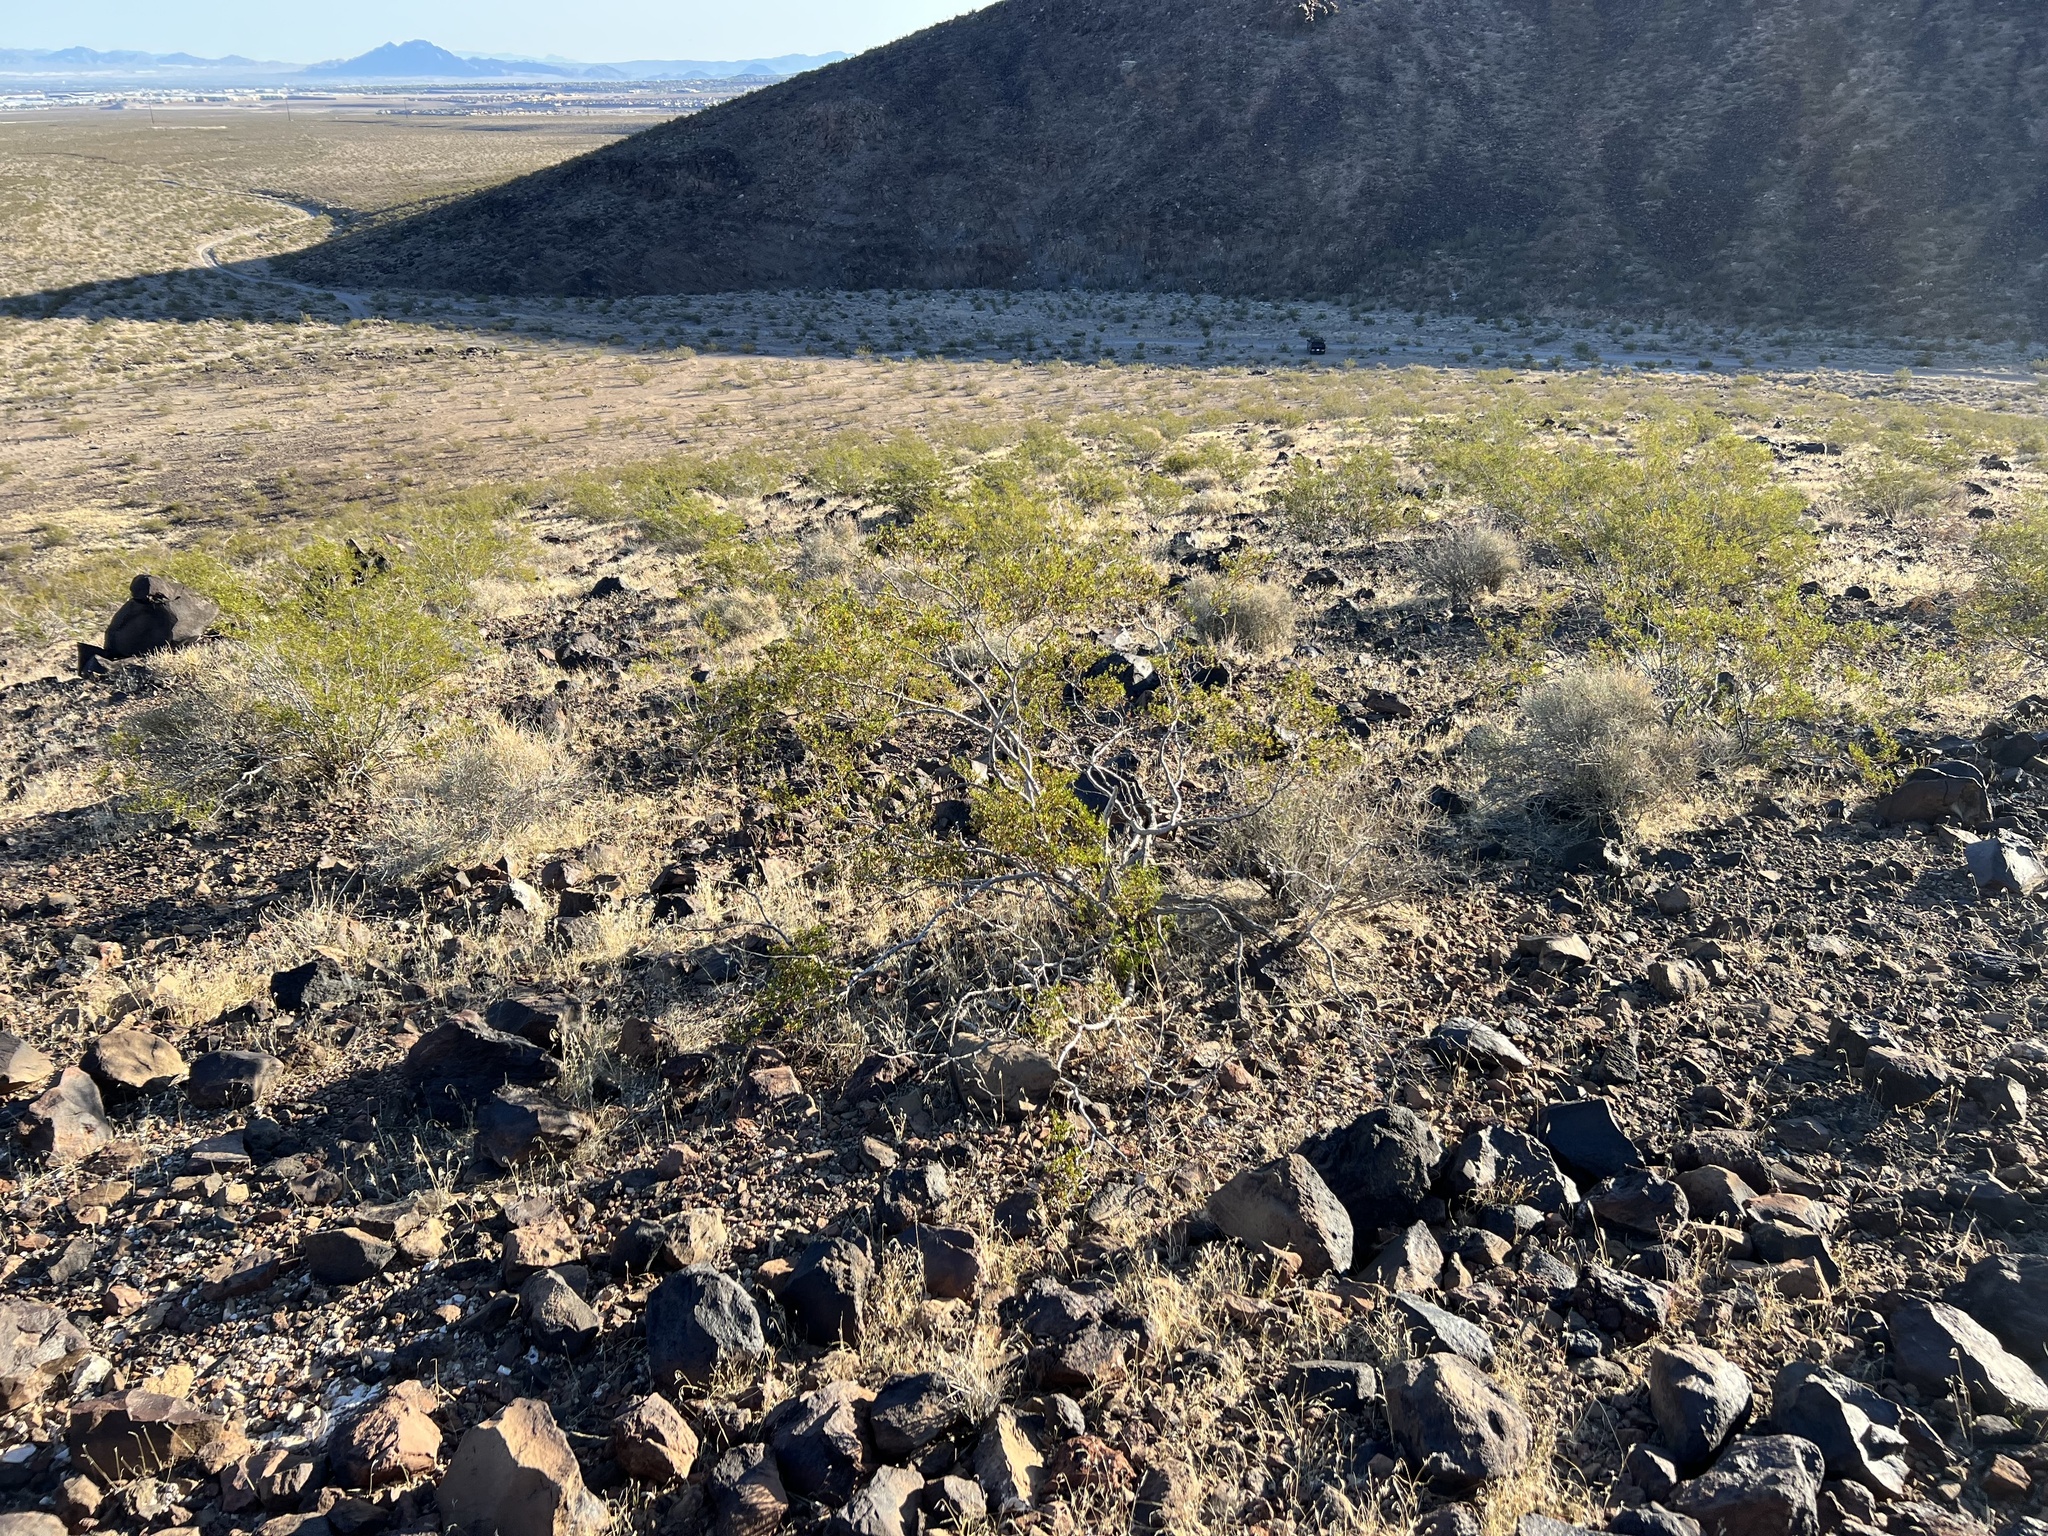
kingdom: Plantae
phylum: Tracheophyta
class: Magnoliopsida
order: Zygophyllales
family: Zygophyllaceae
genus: Larrea
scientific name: Larrea tridentata
